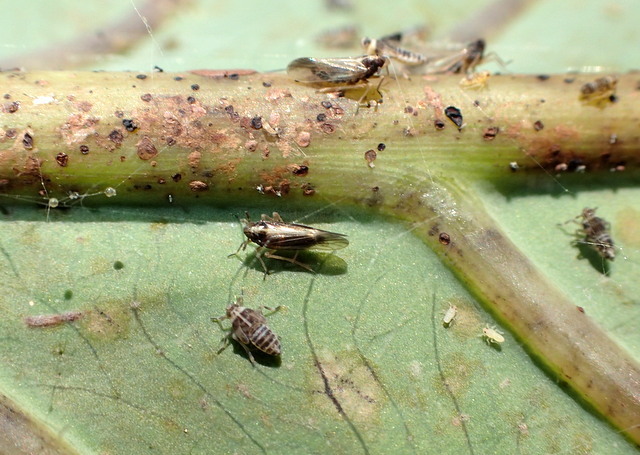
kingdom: Animalia
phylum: Arthropoda
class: Insecta
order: Hemiptera
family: Delphacidae
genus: Tarophagus
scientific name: Tarophagus colocasiae
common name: Taro planthopper
